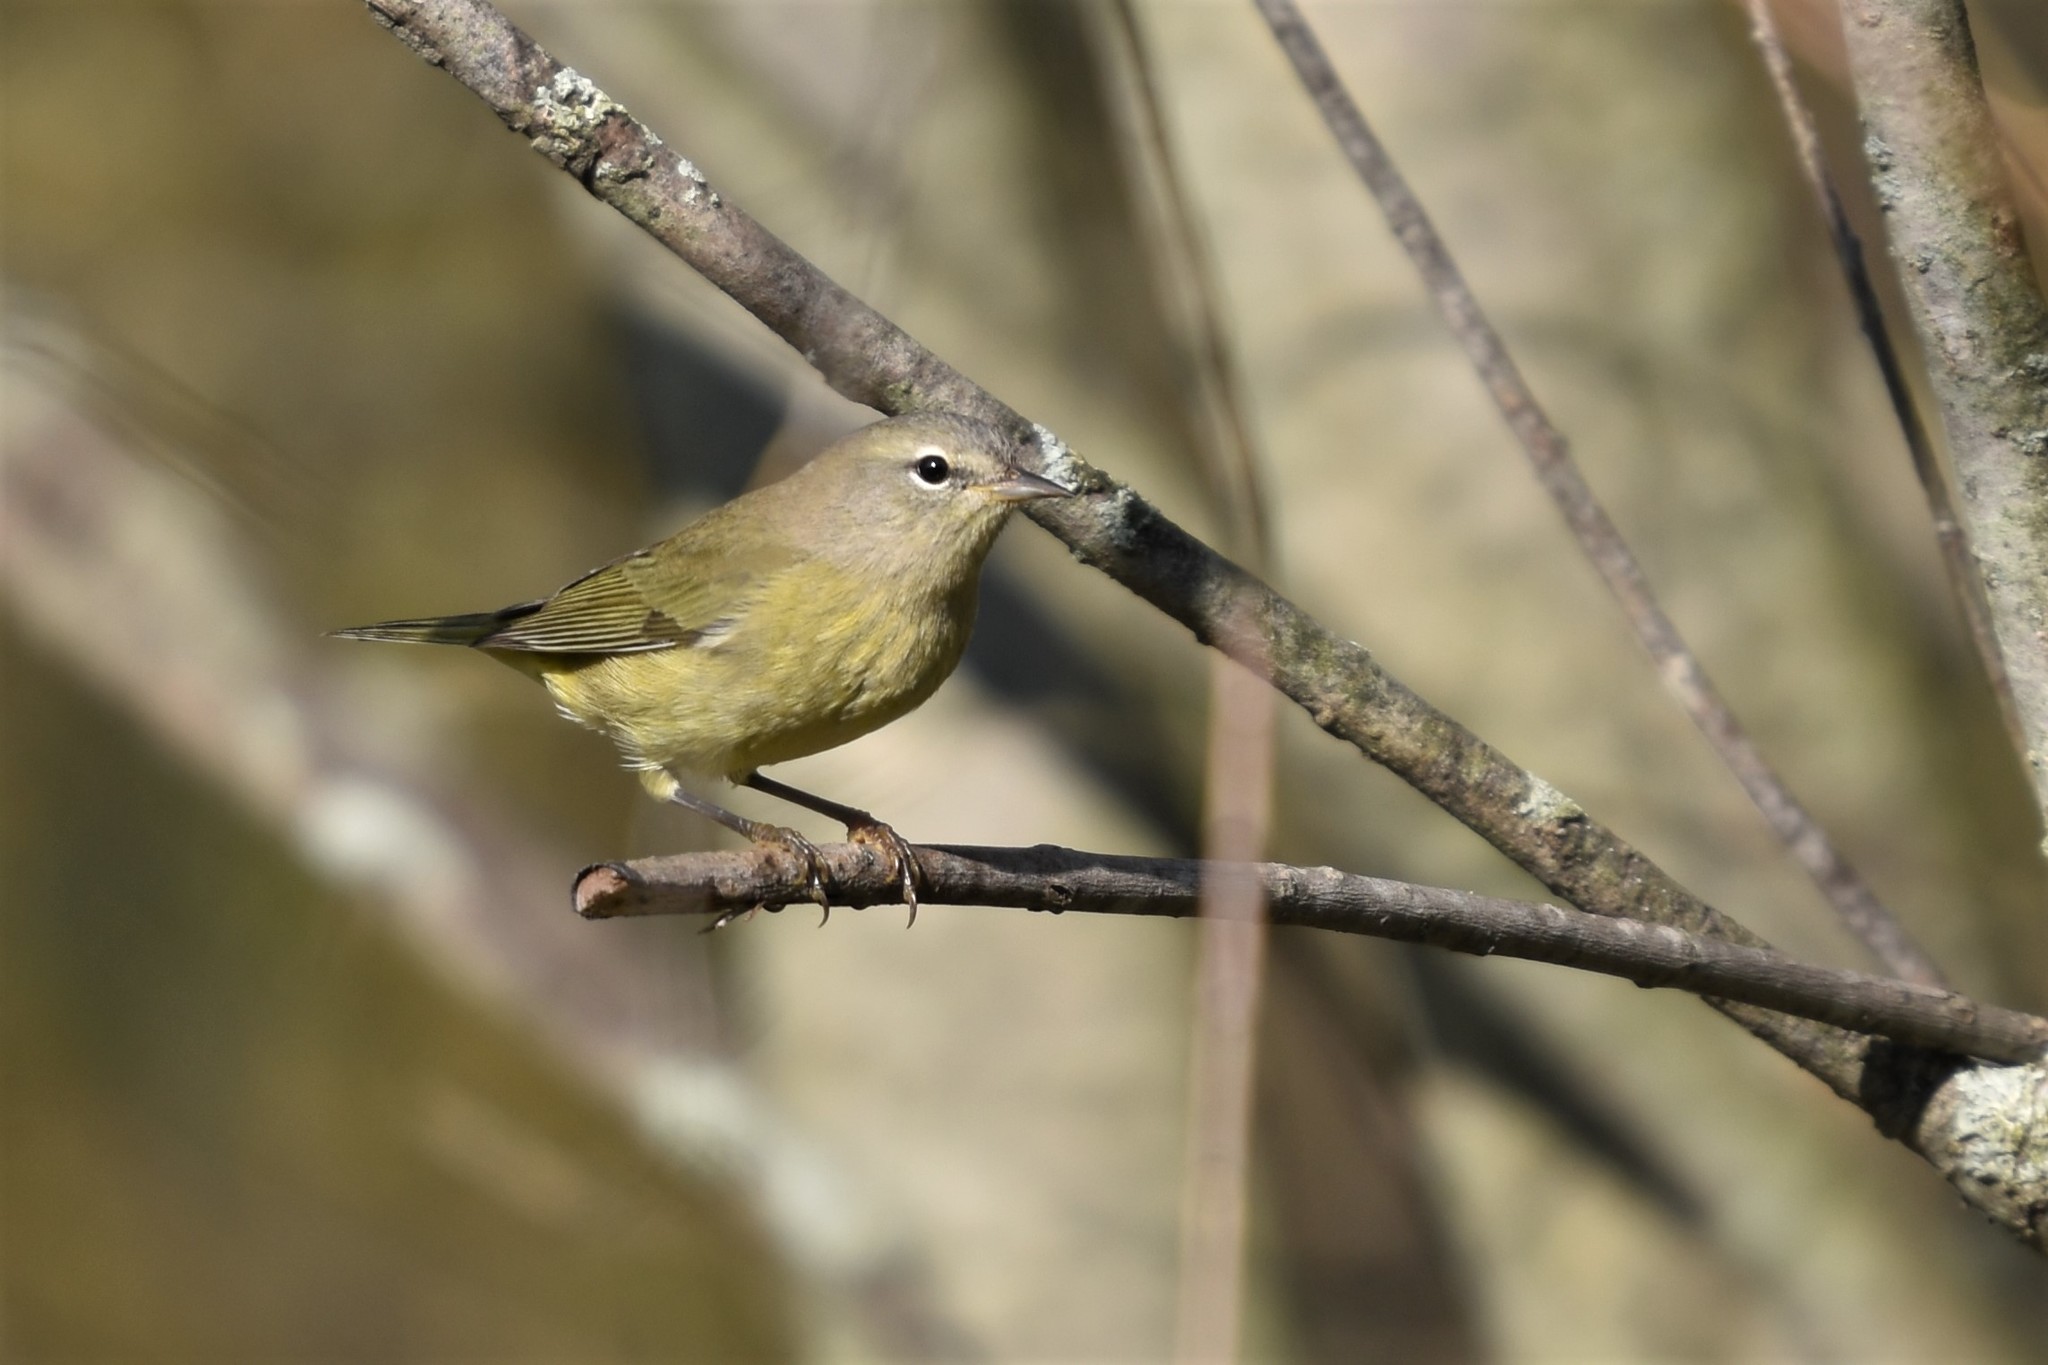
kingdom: Animalia
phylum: Chordata
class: Aves
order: Passeriformes
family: Parulidae
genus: Leiothlypis
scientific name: Leiothlypis celata
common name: Orange-crowned warbler
